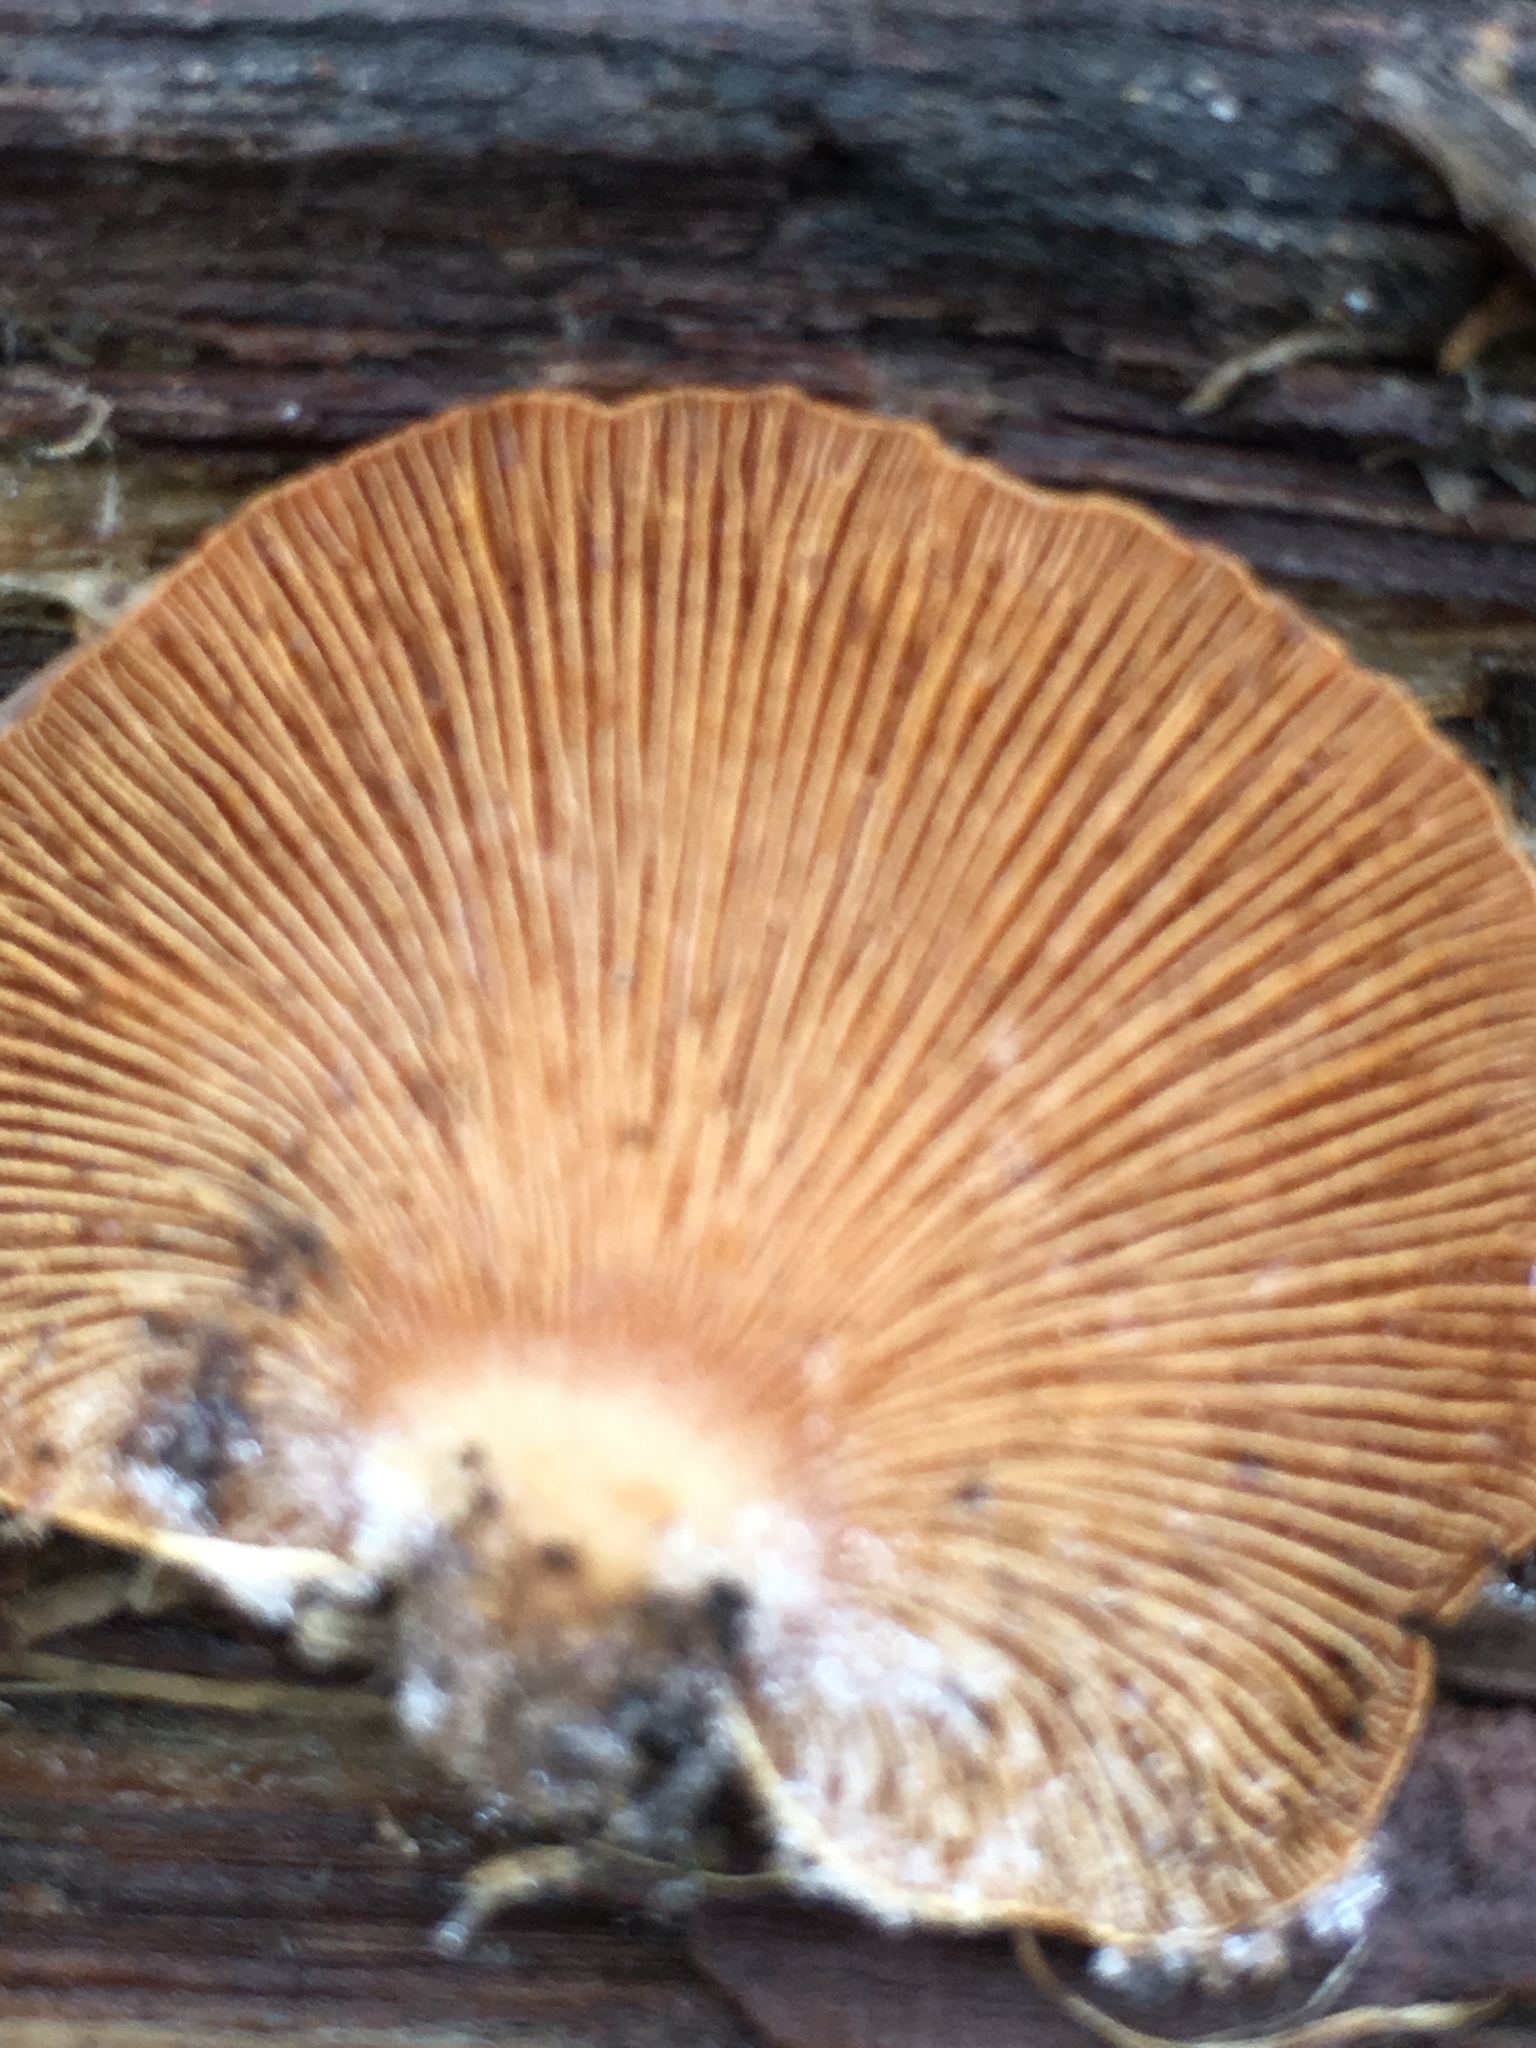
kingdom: Fungi
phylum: Basidiomycota
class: Agaricomycetes
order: Agaricales
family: Mycenaceae
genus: Panellus
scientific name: Panellus stipticus
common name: Bitter oysterling
